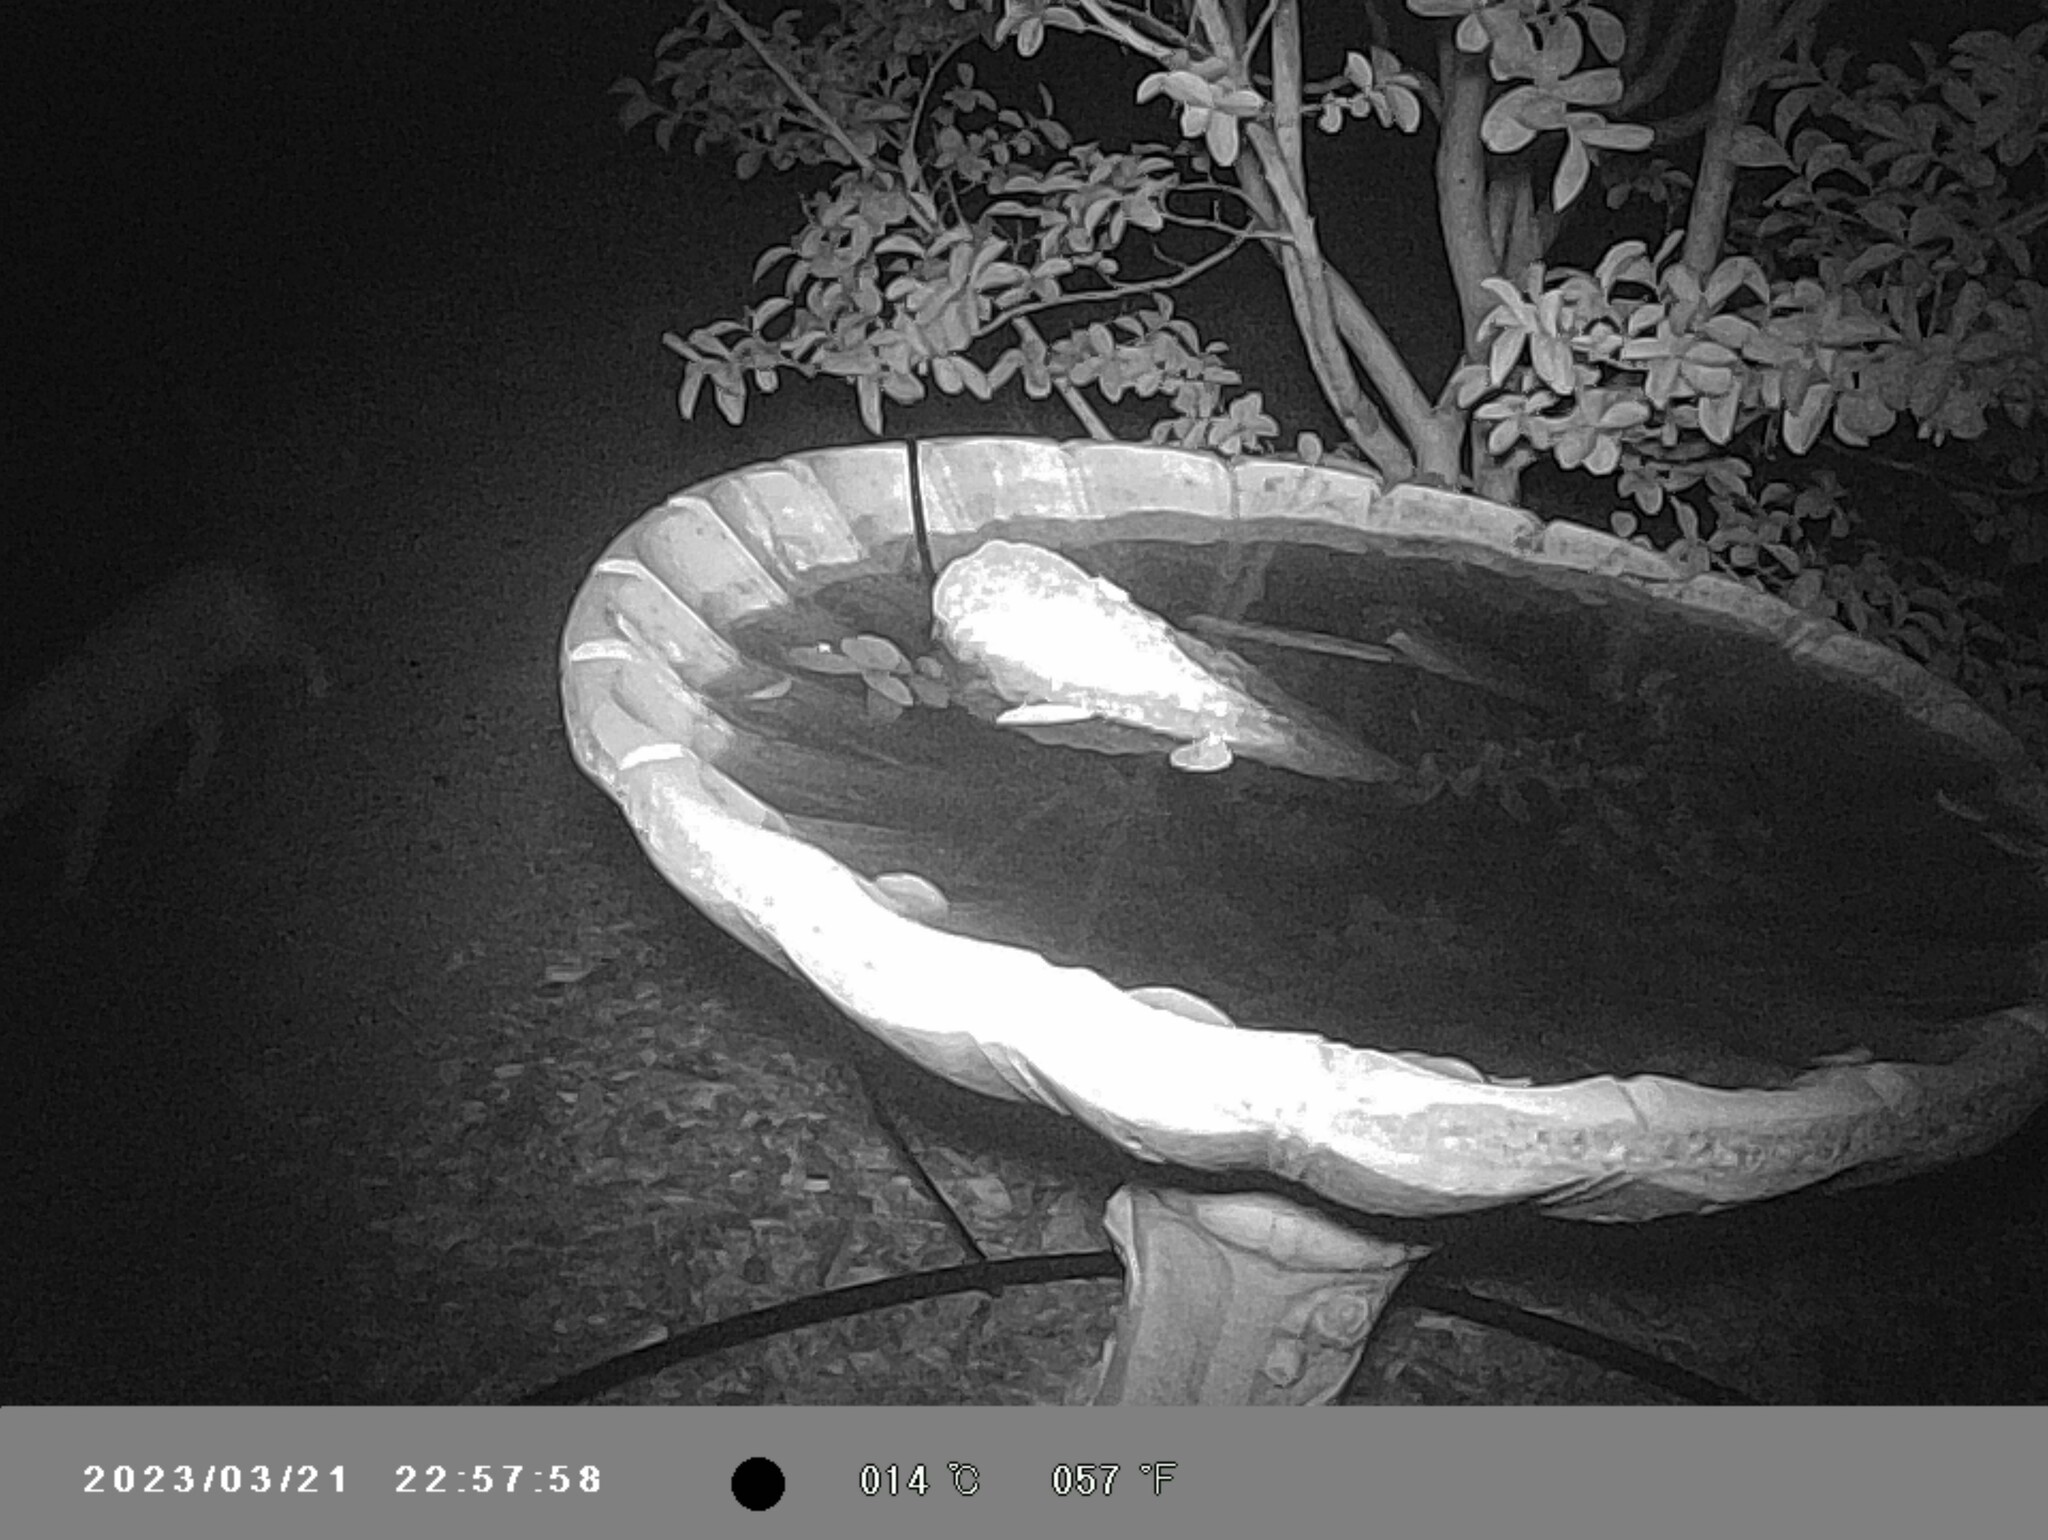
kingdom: Animalia
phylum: Chordata
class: Mammalia
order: Carnivora
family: Felidae
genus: Felis
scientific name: Felis catus
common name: Domestic cat
